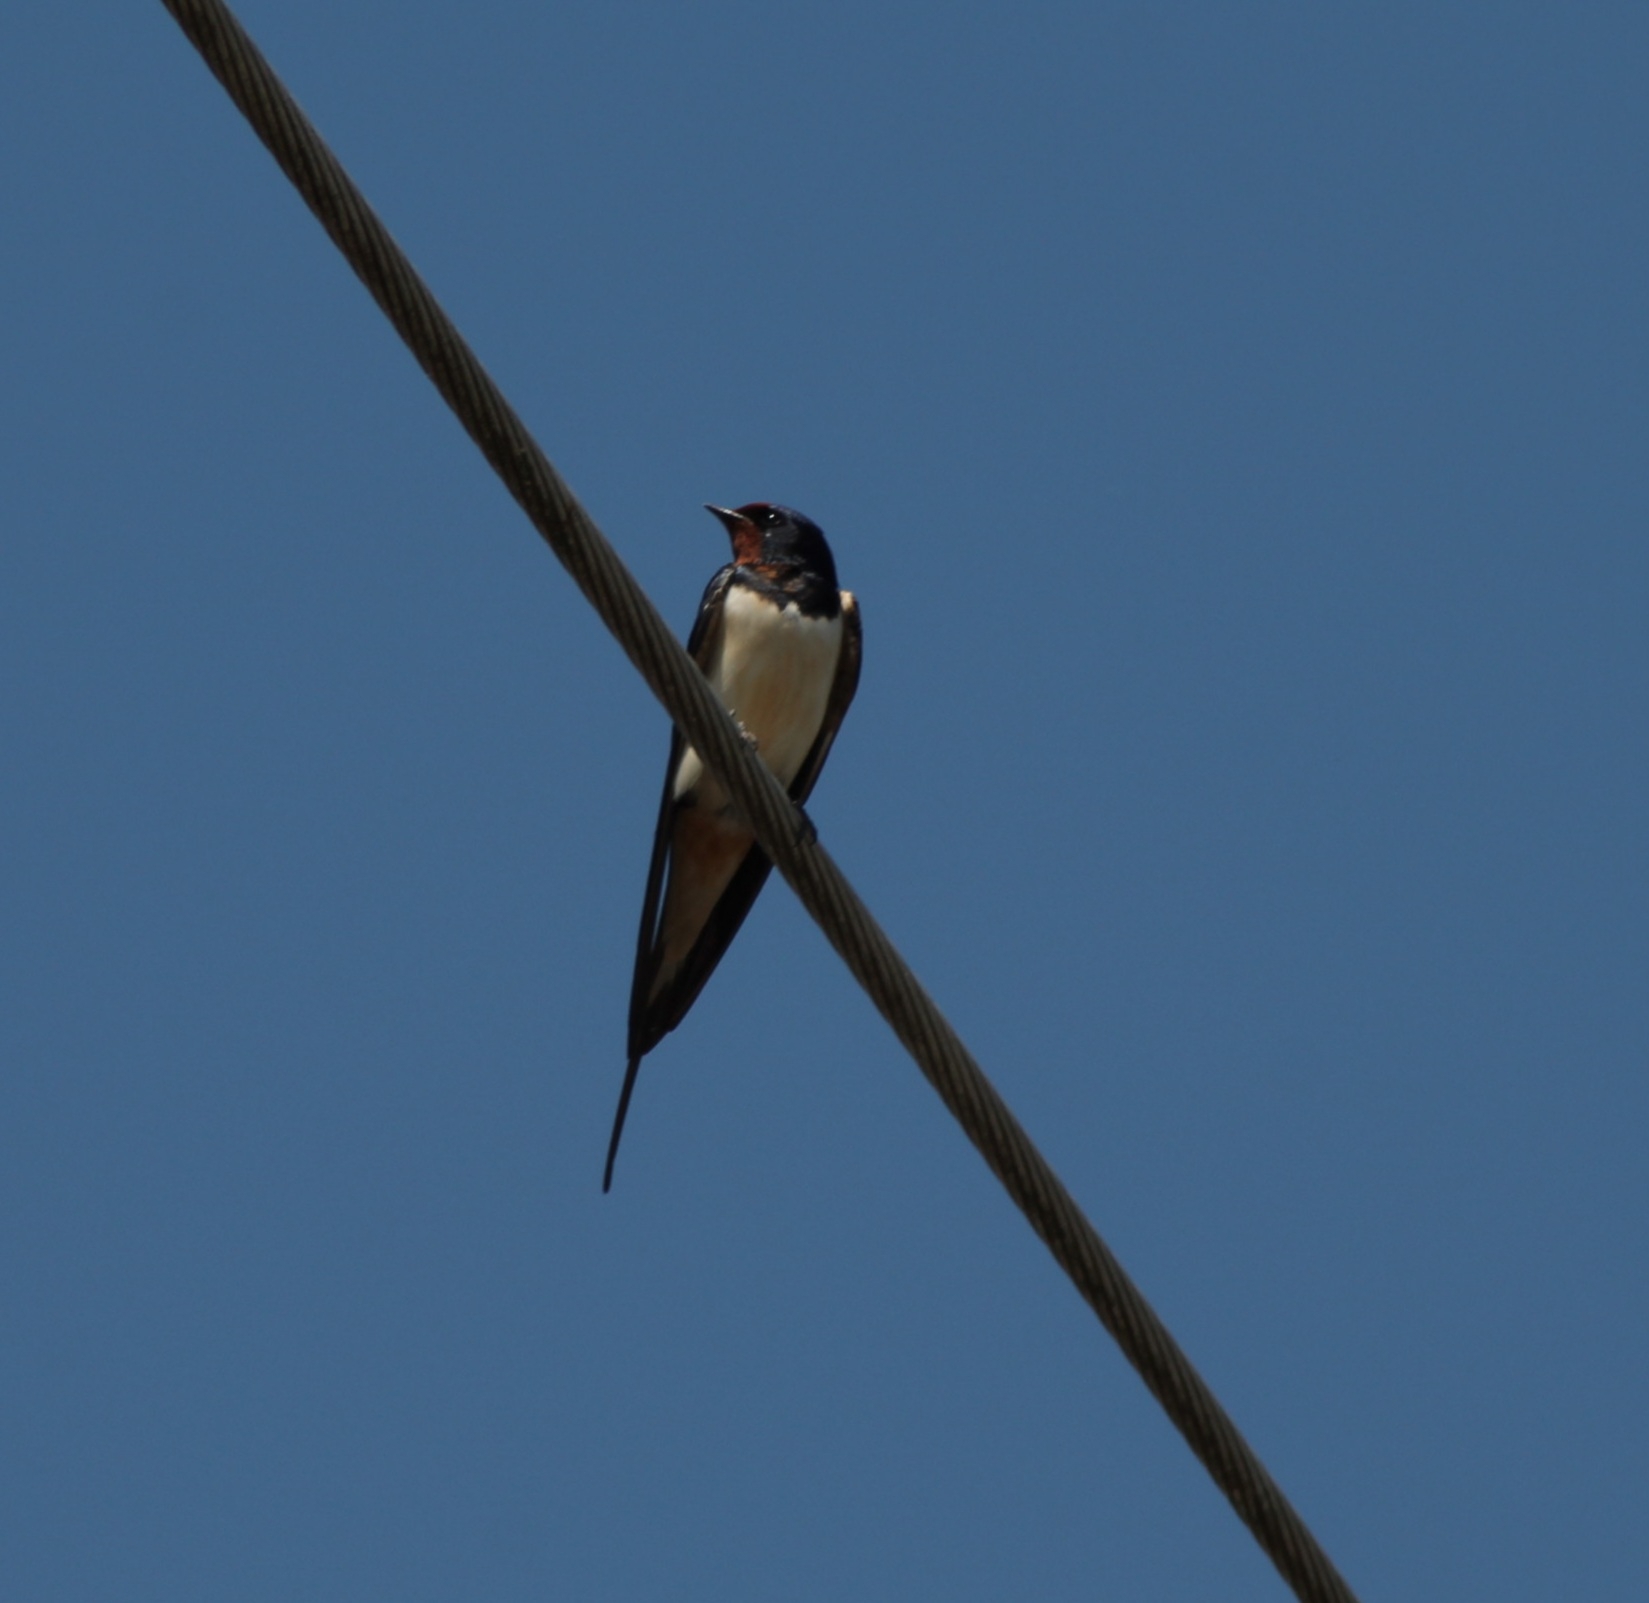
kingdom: Animalia
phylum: Chordata
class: Aves
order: Passeriformes
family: Hirundinidae
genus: Hirundo
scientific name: Hirundo rustica
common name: Barn swallow
